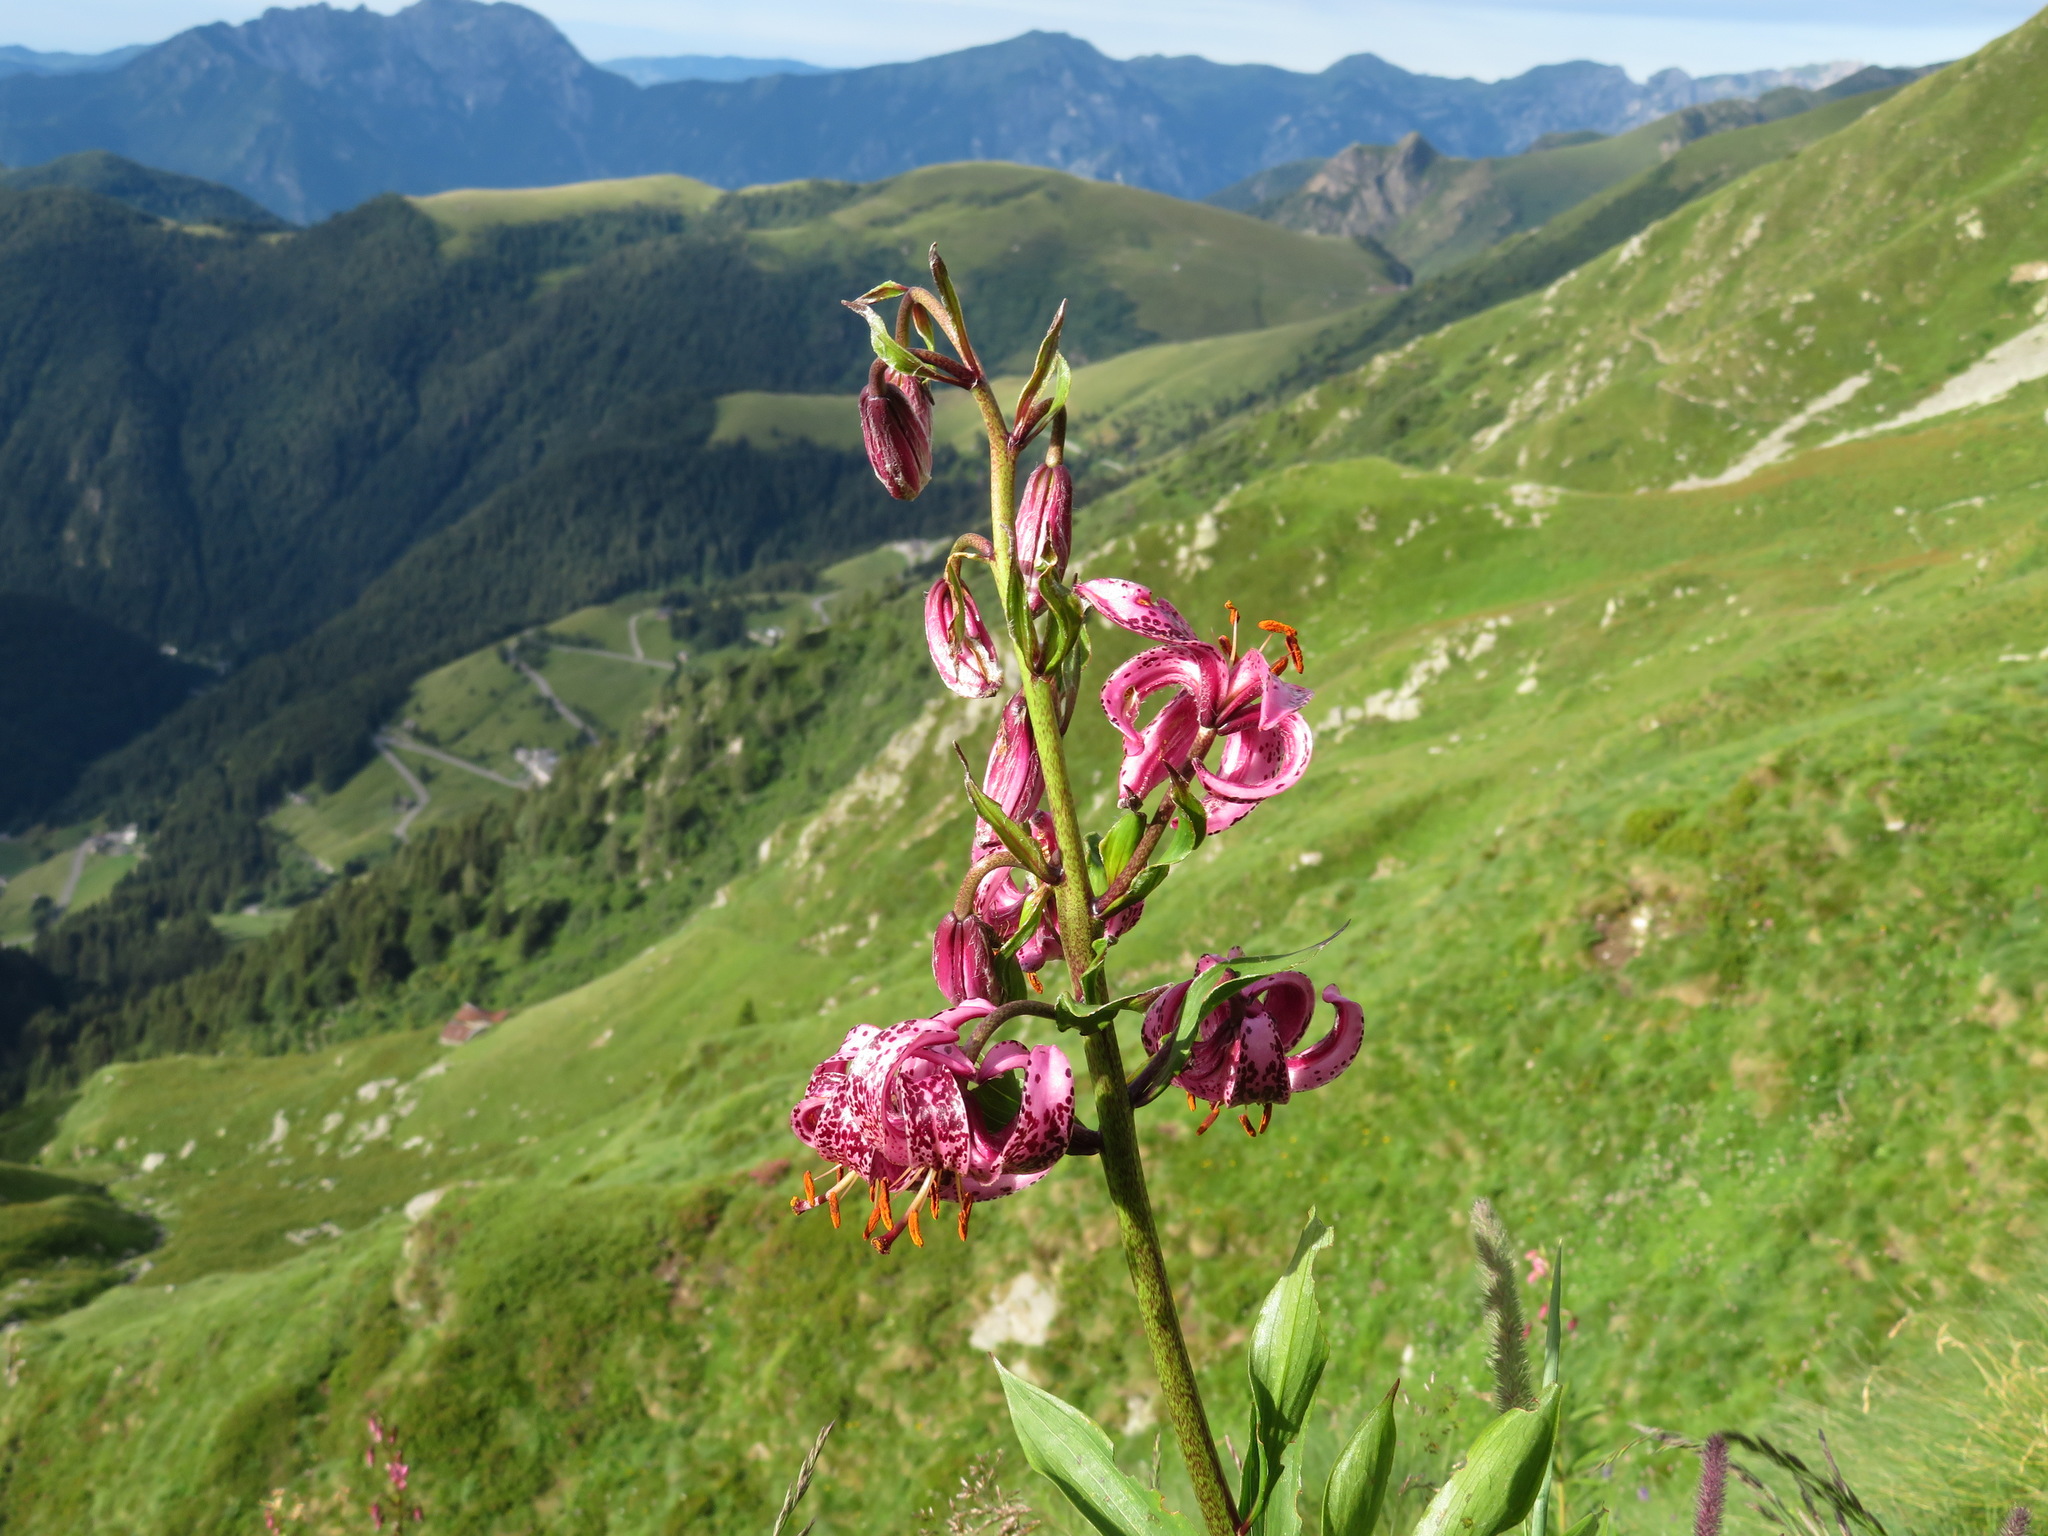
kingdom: Plantae
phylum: Tracheophyta
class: Liliopsida
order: Liliales
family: Liliaceae
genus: Lilium
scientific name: Lilium martagon
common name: Martagon lily
